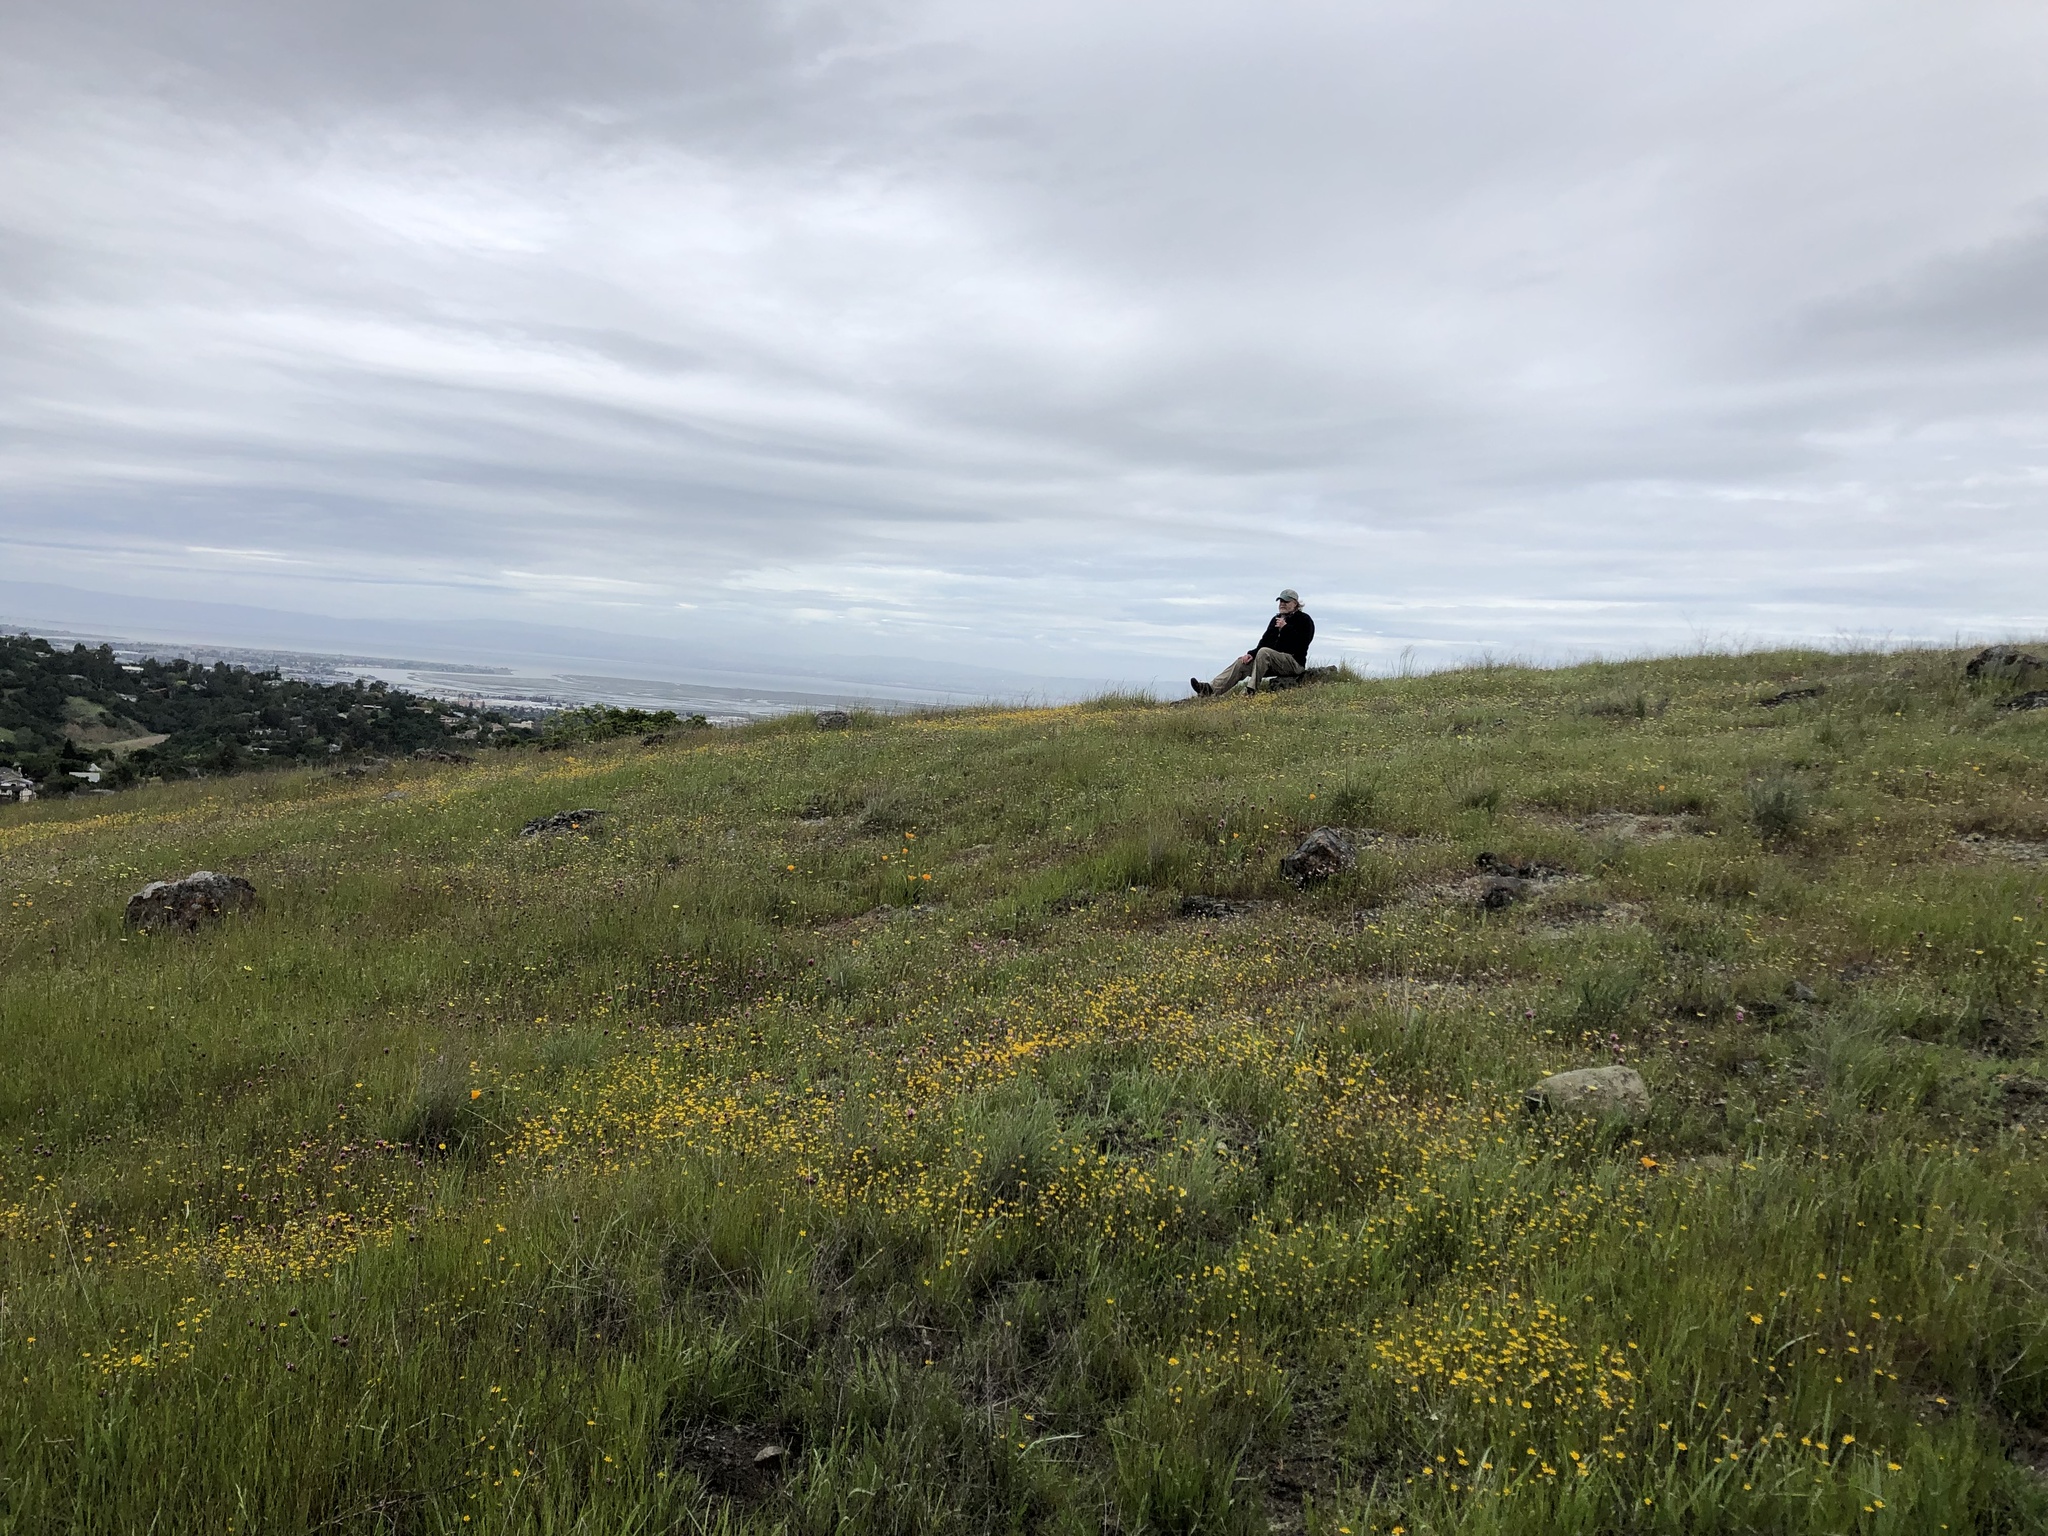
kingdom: Plantae
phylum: Tracheophyta
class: Magnoliopsida
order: Caryophyllales
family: Montiaceae
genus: Lewisia
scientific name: Lewisia rediviva
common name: Bitter-root
